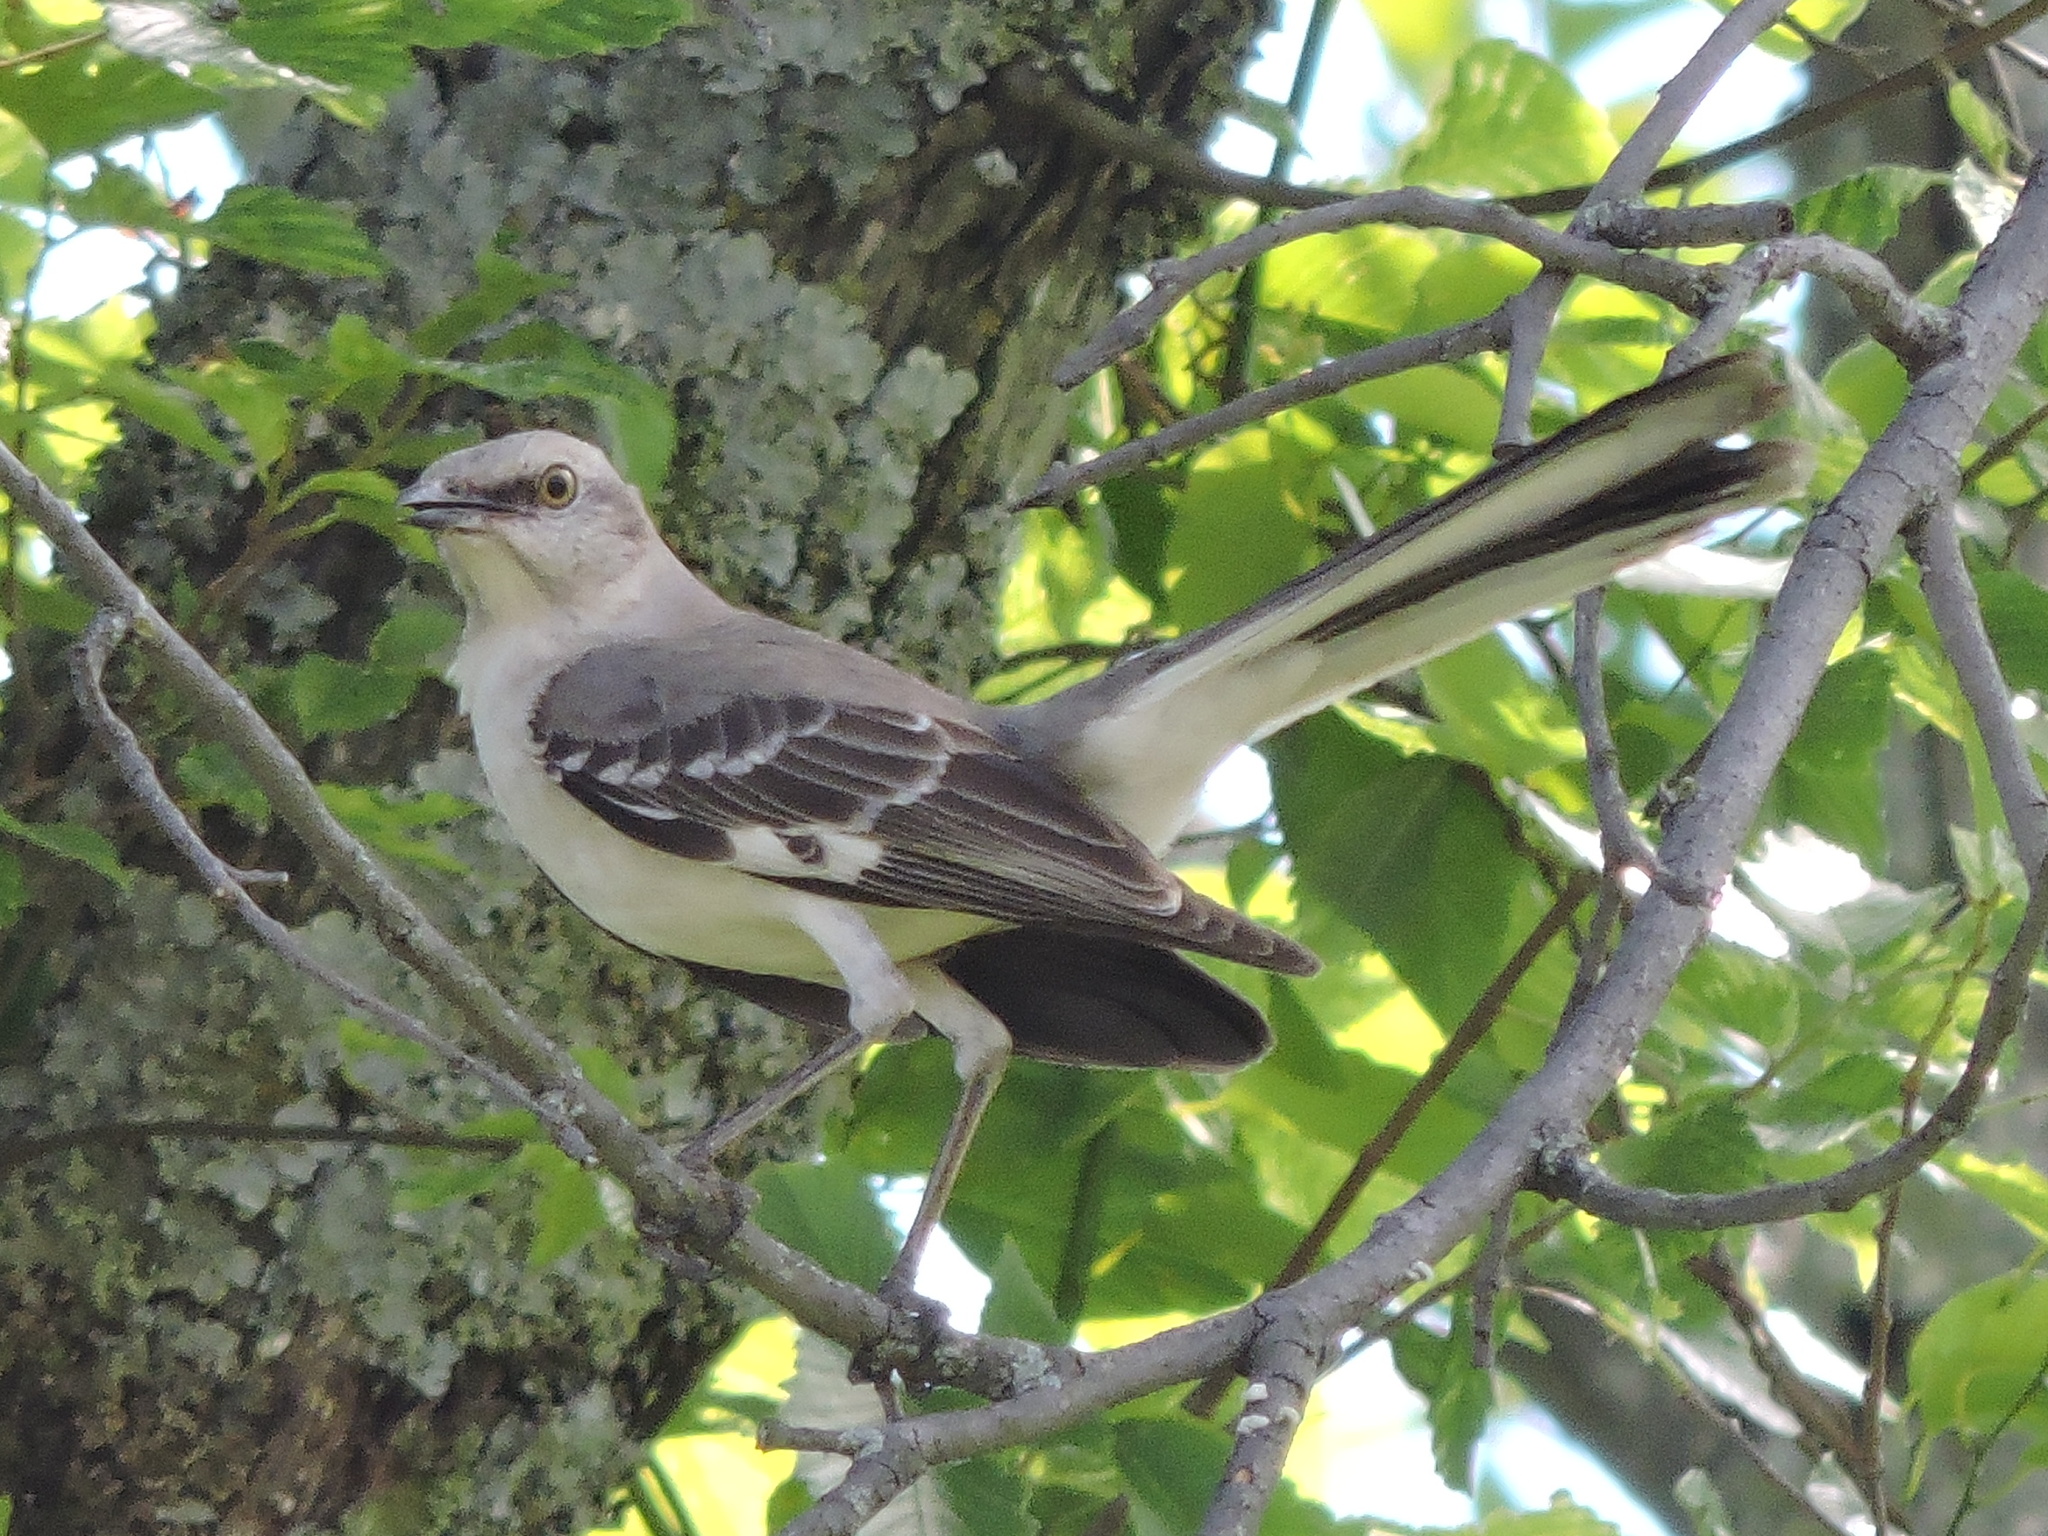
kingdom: Animalia
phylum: Chordata
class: Aves
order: Passeriformes
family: Mimidae
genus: Mimus
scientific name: Mimus polyglottos
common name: Northern mockingbird
